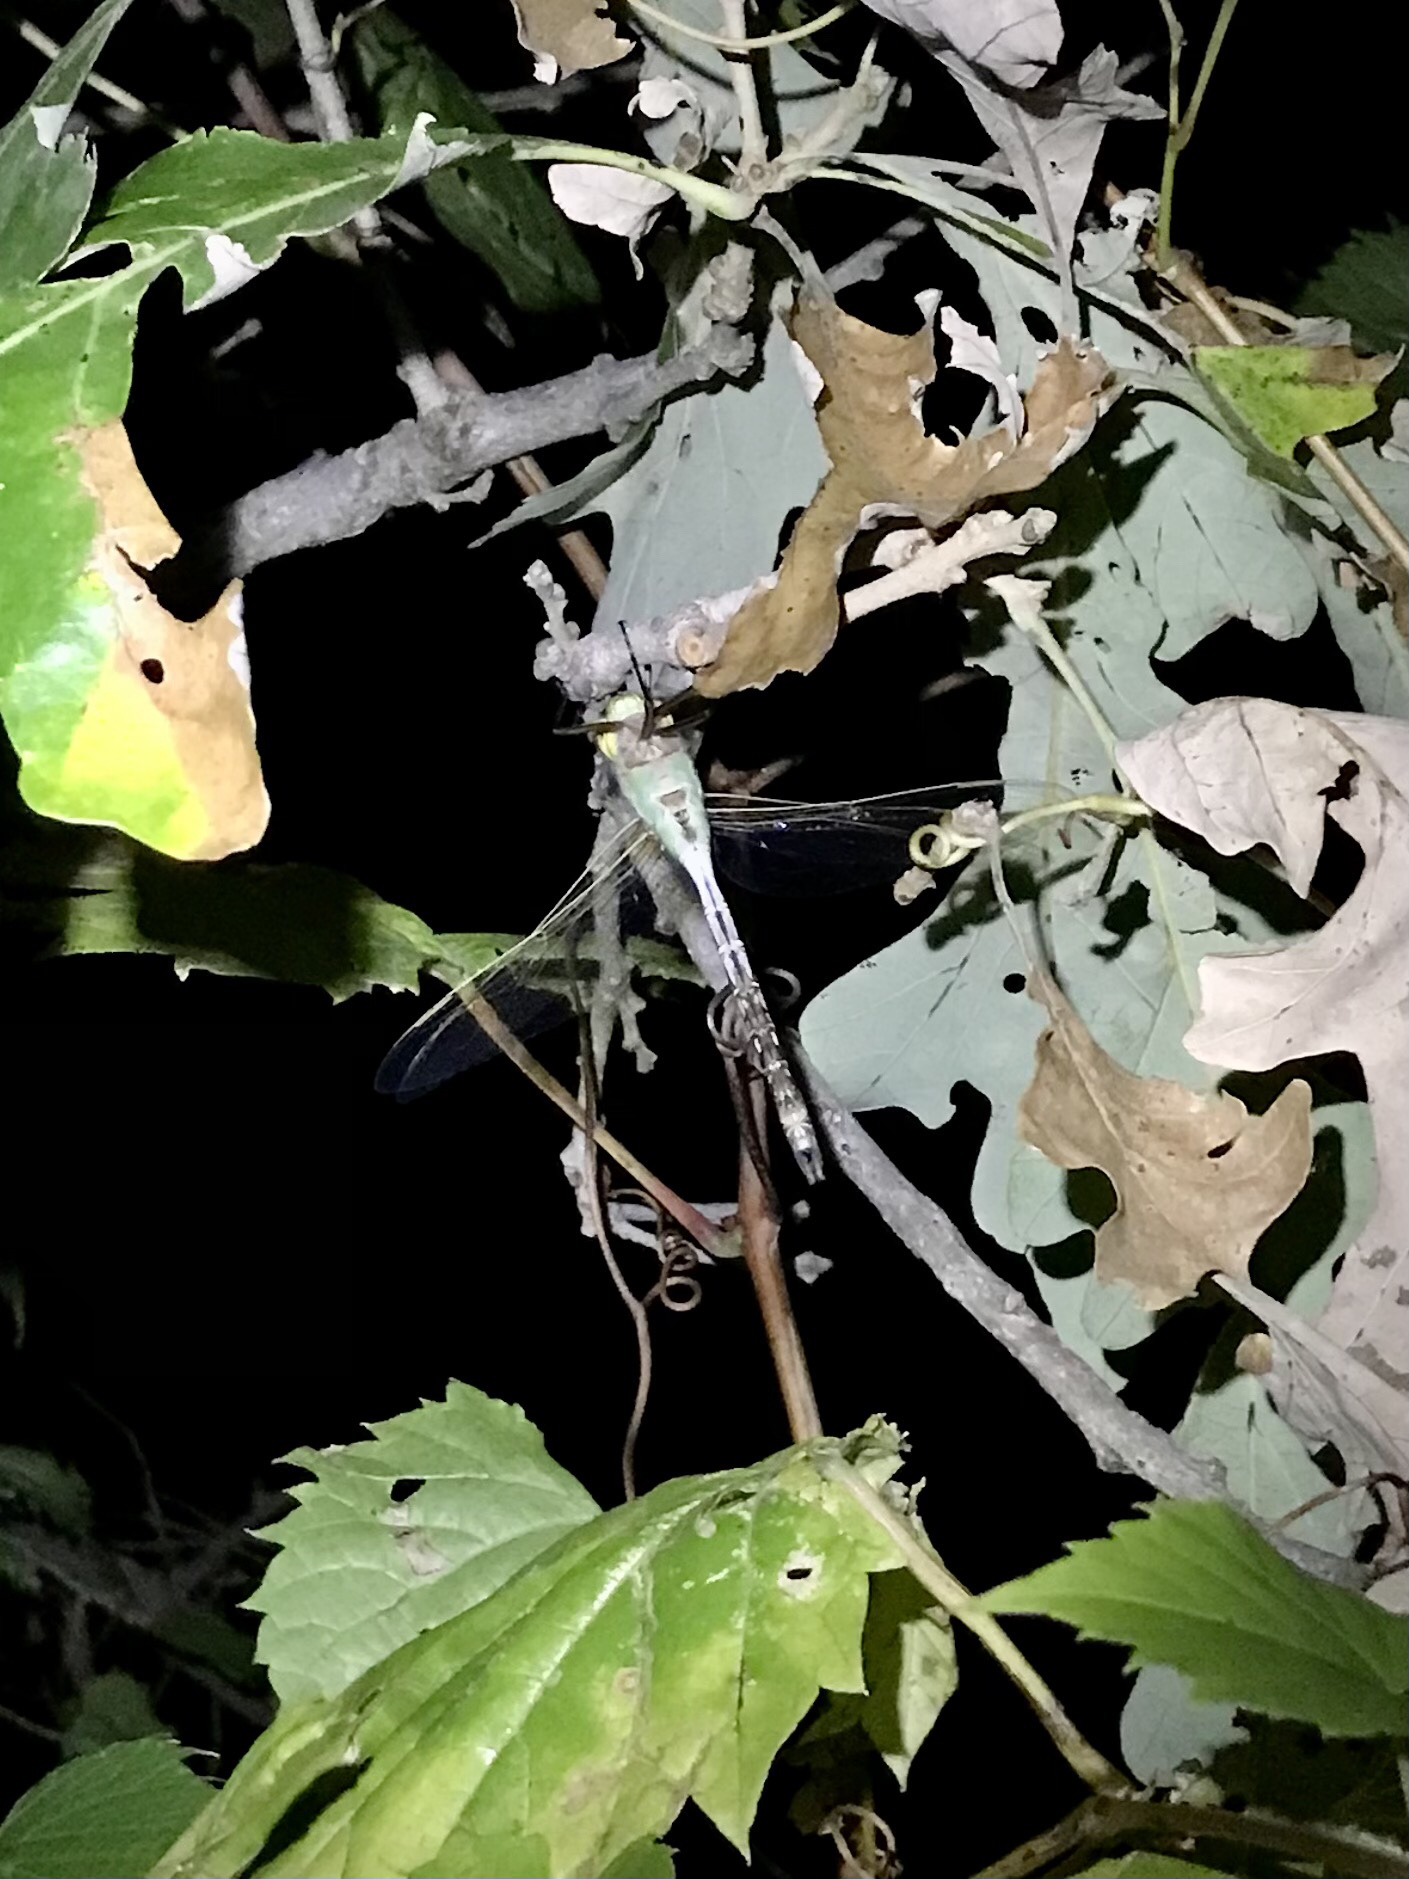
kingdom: Animalia
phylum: Arthropoda
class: Insecta
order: Odonata
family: Aeshnidae
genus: Anax
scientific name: Anax junius
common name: Common green darner
